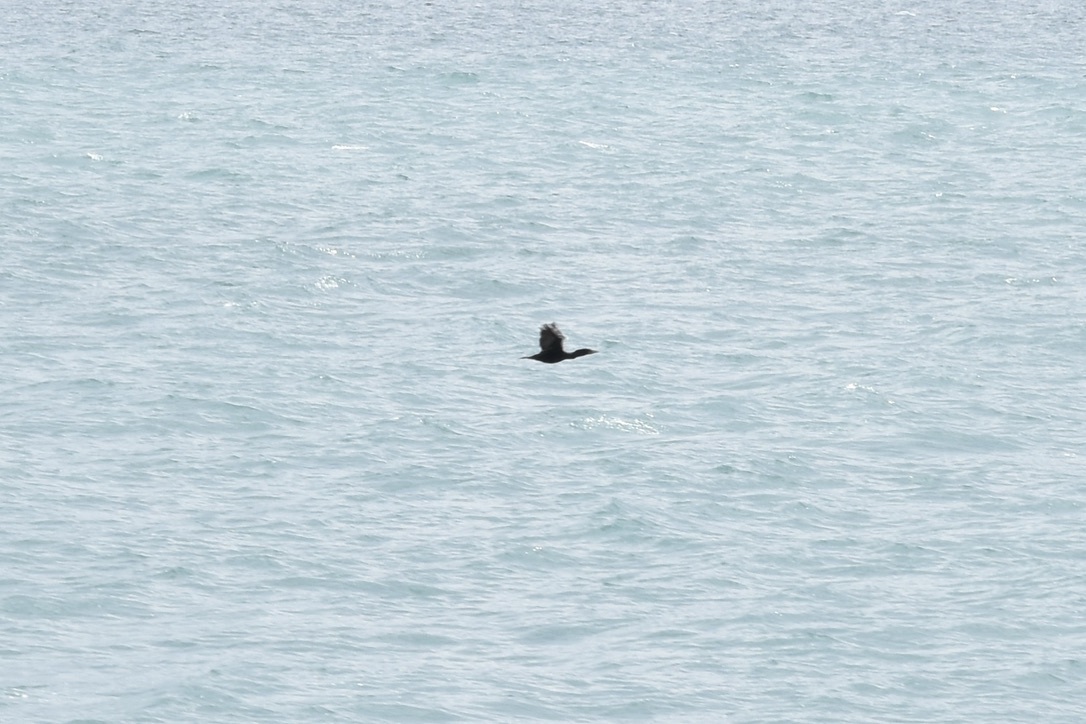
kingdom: Animalia
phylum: Chordata
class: Aves
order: Suliformes
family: Phalacrocoracidae
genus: Phalacrocorax
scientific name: Phalacrocorax auritus
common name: Double-crested cormorant
